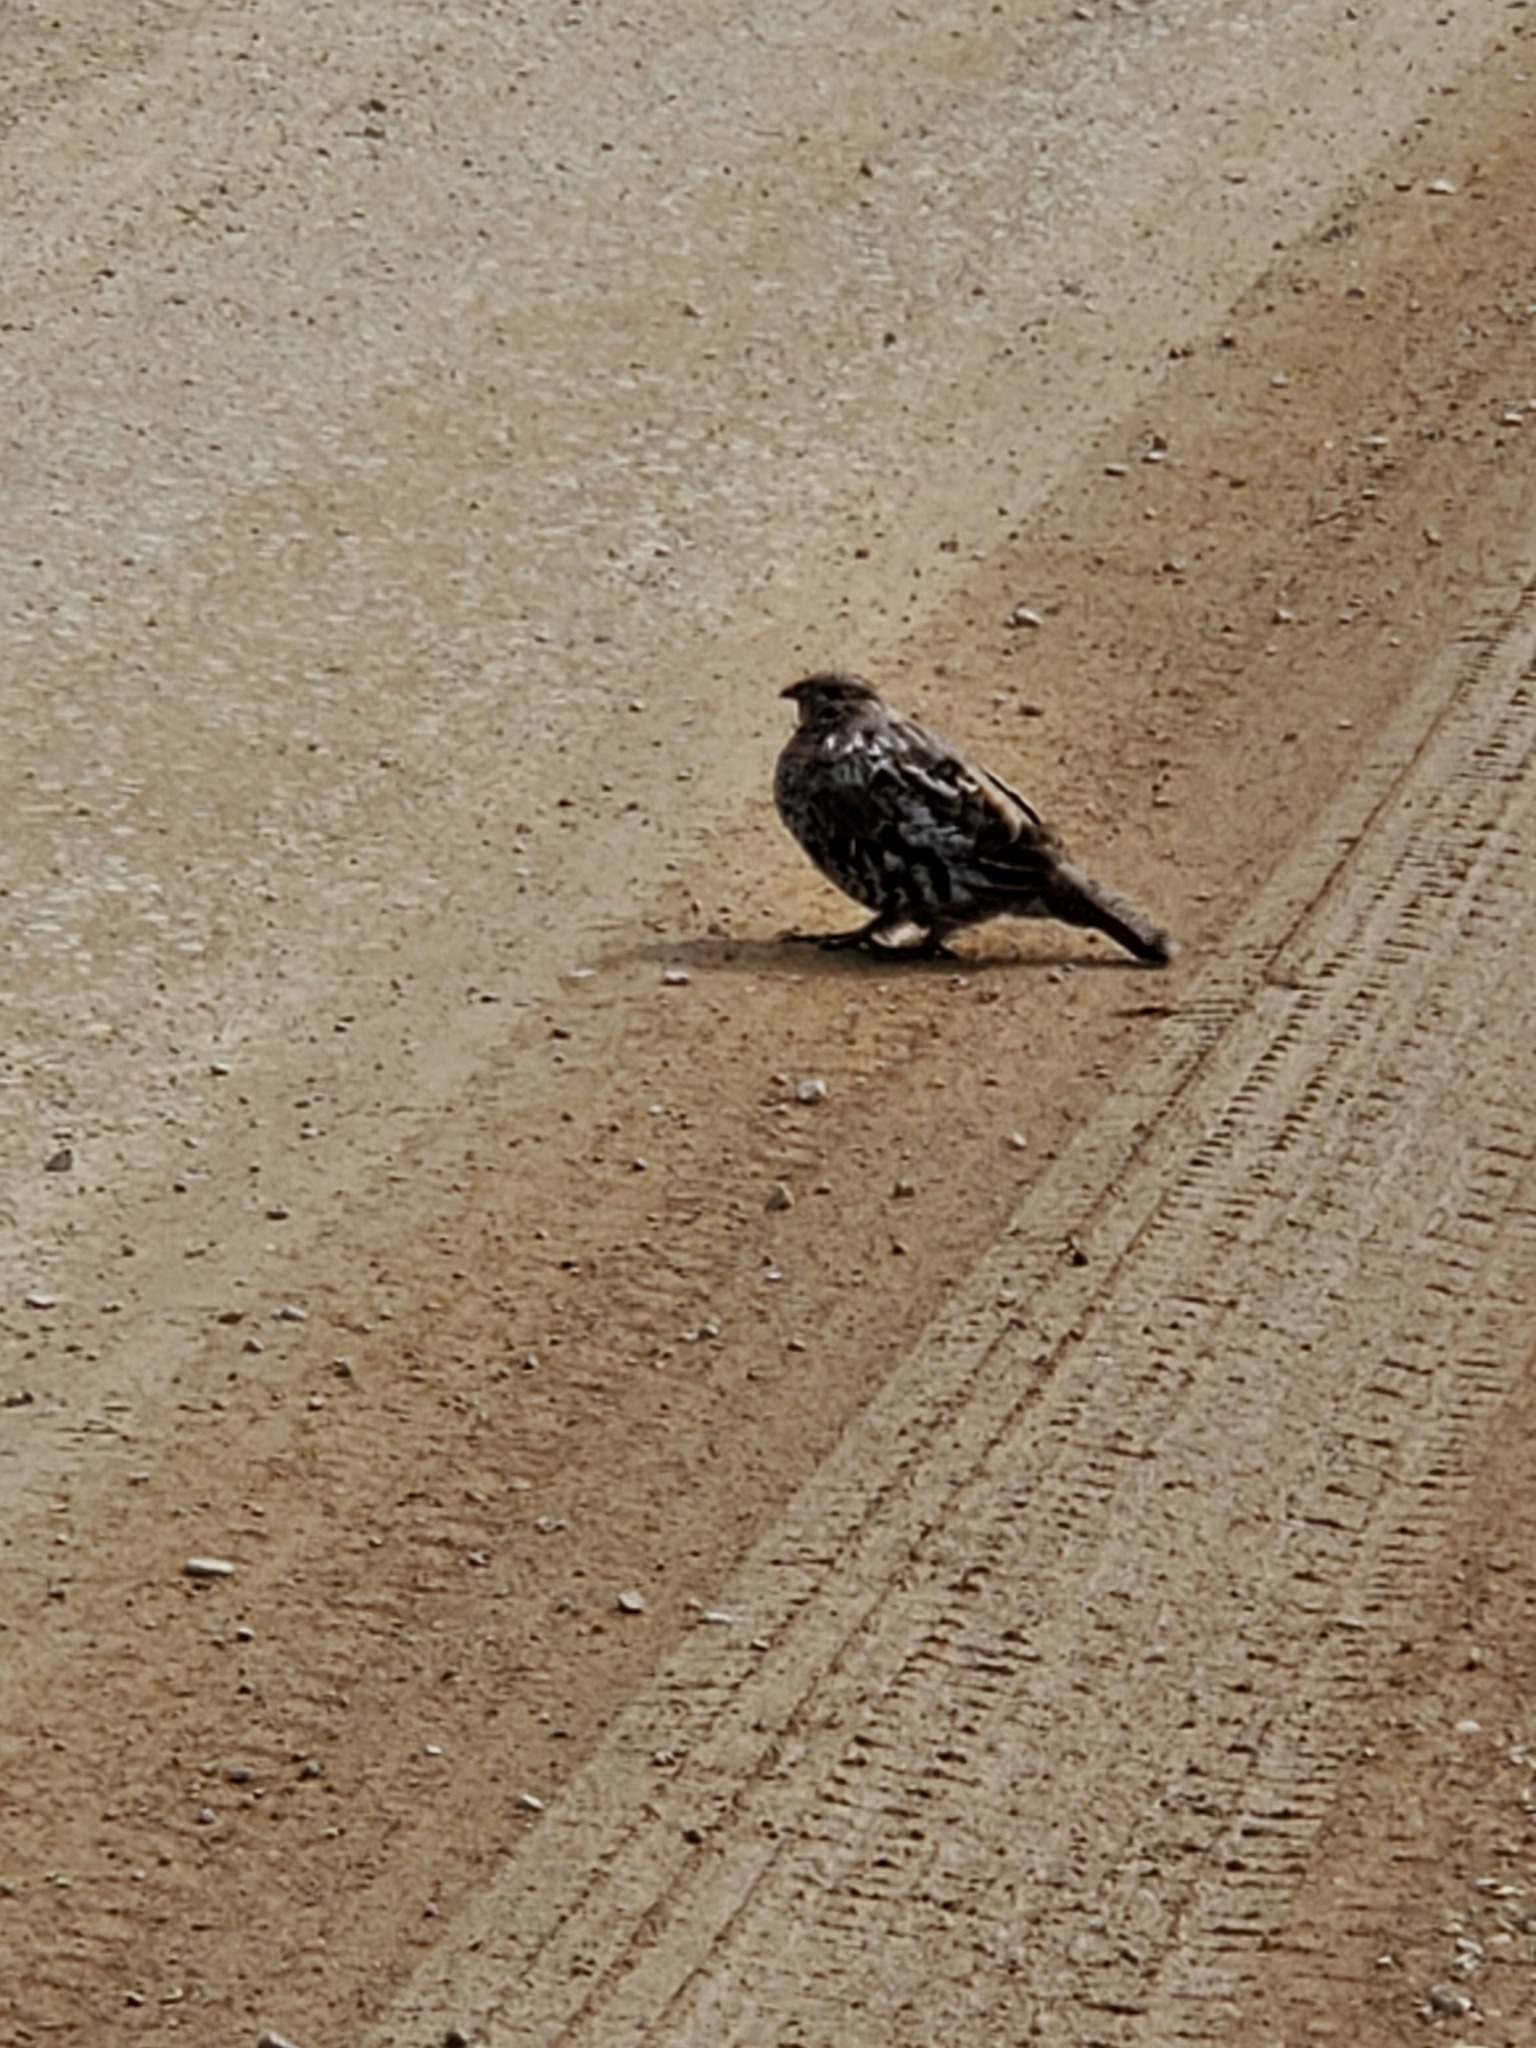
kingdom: Animalia
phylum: Chordata
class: Aves
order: Galliformes
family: Phasianidae
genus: Bonasa
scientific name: Bonasa umbellus
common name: Ruffed grouse
